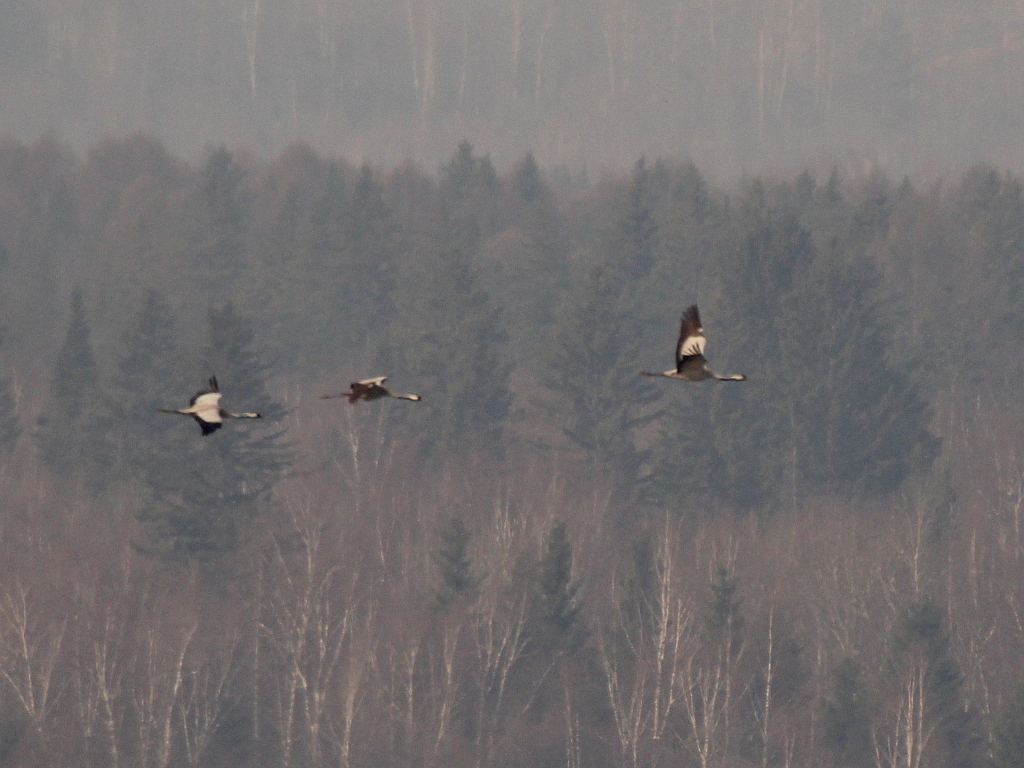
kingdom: Animalia
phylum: Chordata
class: Aves
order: Gruiformes
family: Gruidae
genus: Grus
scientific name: Grus grus
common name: Common crane
